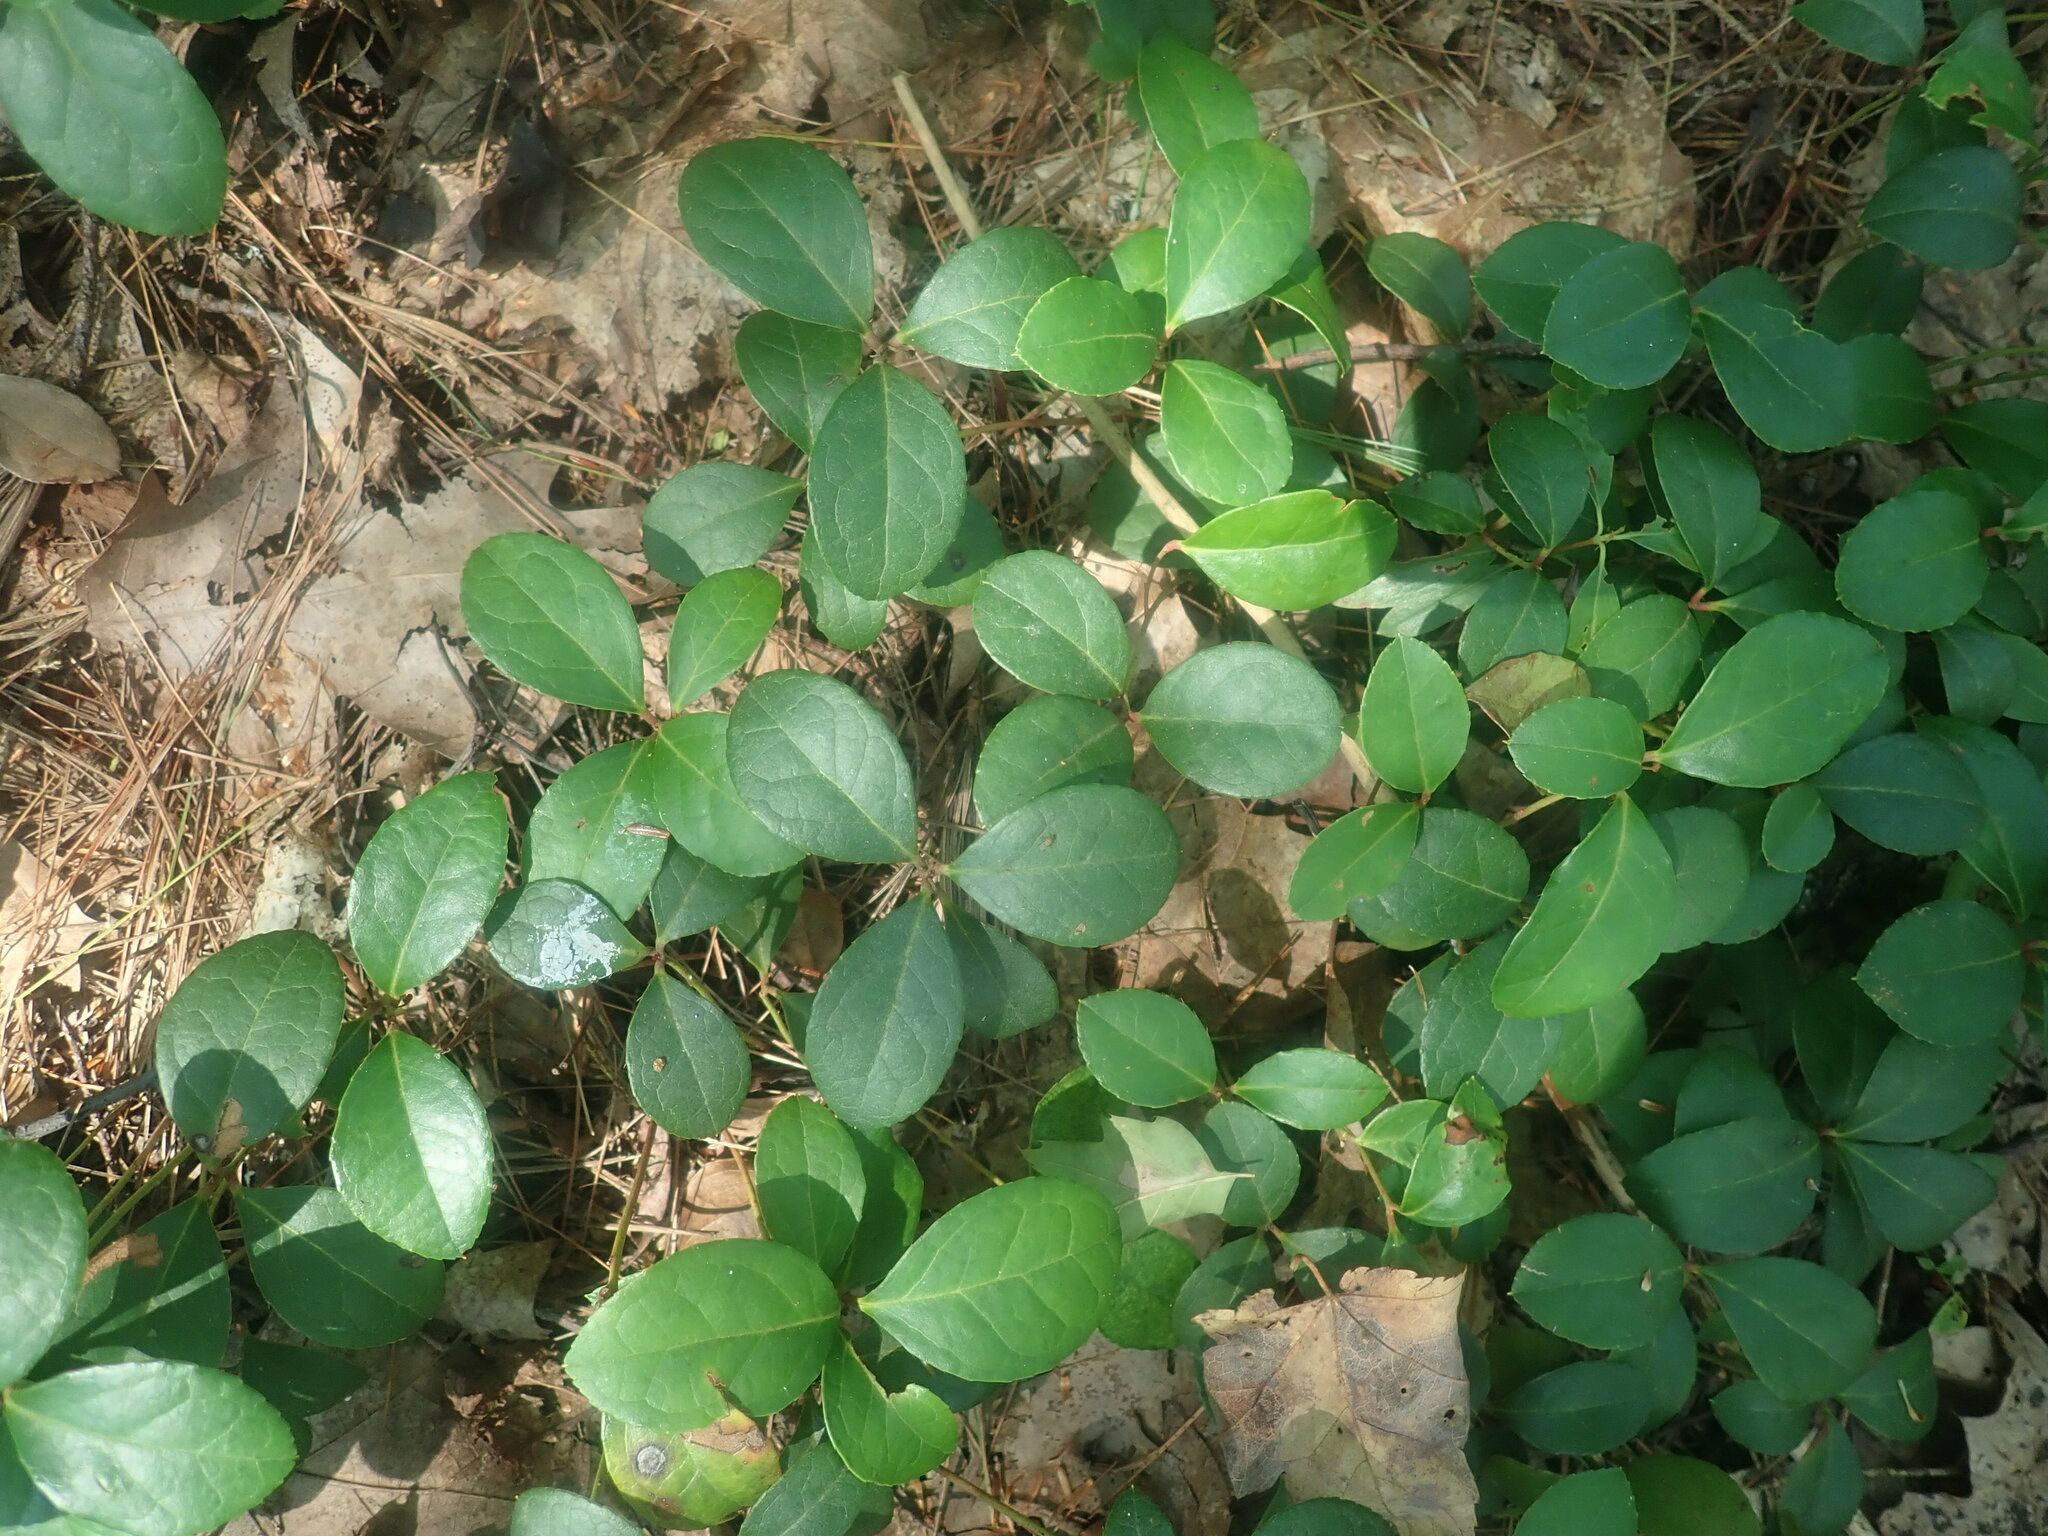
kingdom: Plantae
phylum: Tracheophyta
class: Magnoliopsida
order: Ericales
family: Ericaceae
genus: Gaultheria
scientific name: Gaultheria procumbens
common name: Checkerberry
